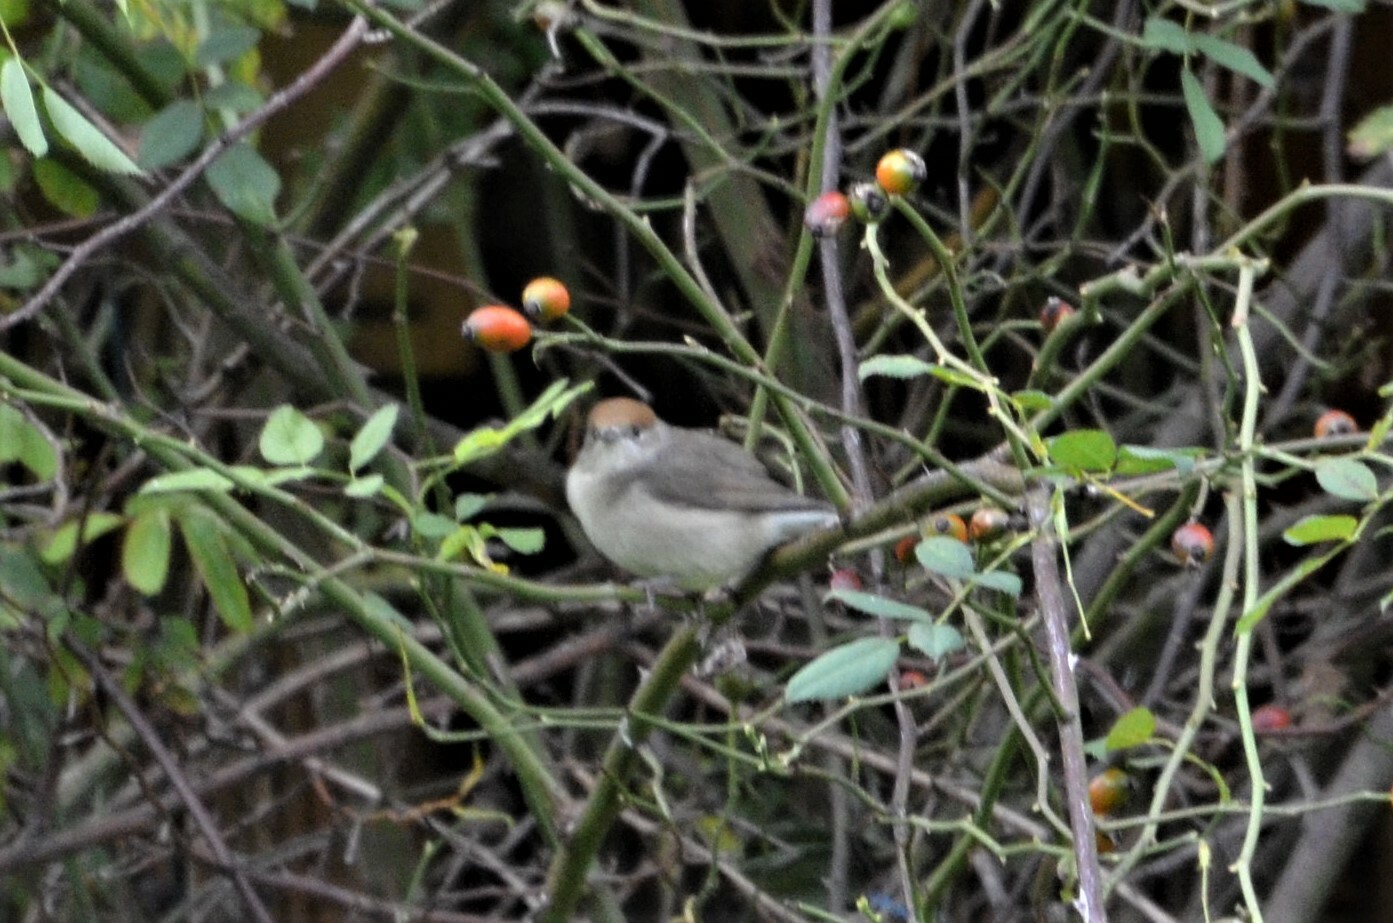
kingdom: Animalia
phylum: Chordata
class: Aves
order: Passeriformes
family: Sylviidae
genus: Sylvia
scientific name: Sylvia atricapilla
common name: Eurasian blackcap
